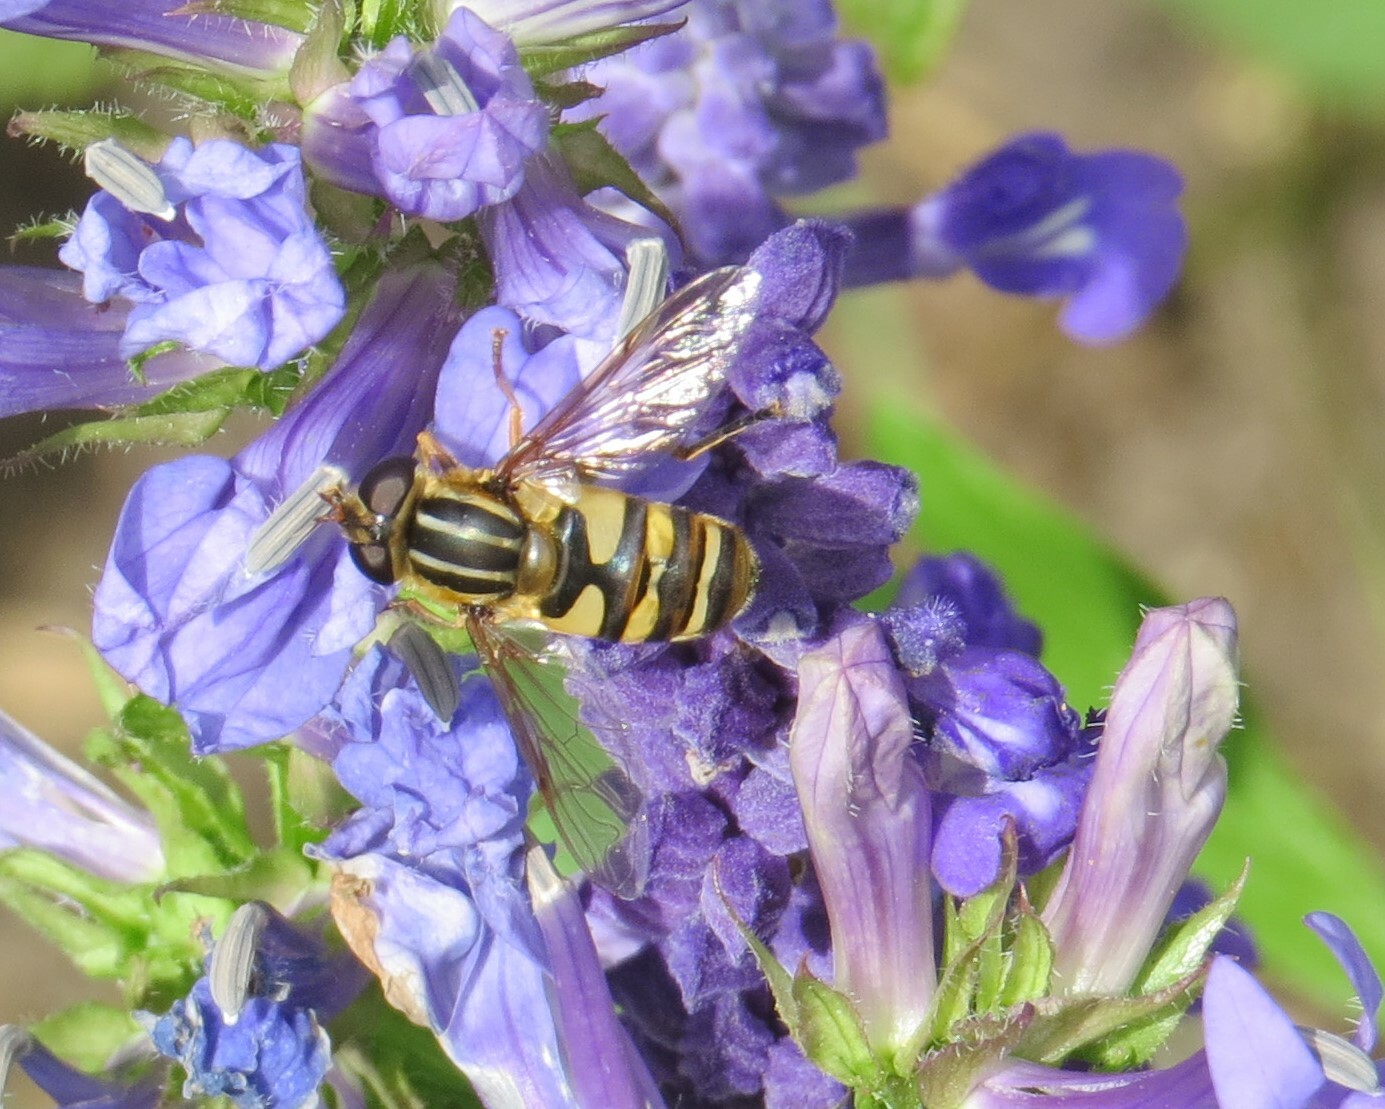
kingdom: Animalia
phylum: Arthropoda
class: Insecta
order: Diptera
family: Syrphidae
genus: Helophilus
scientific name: Helophilus fasciatus
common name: Narrow-headed marsh fly
